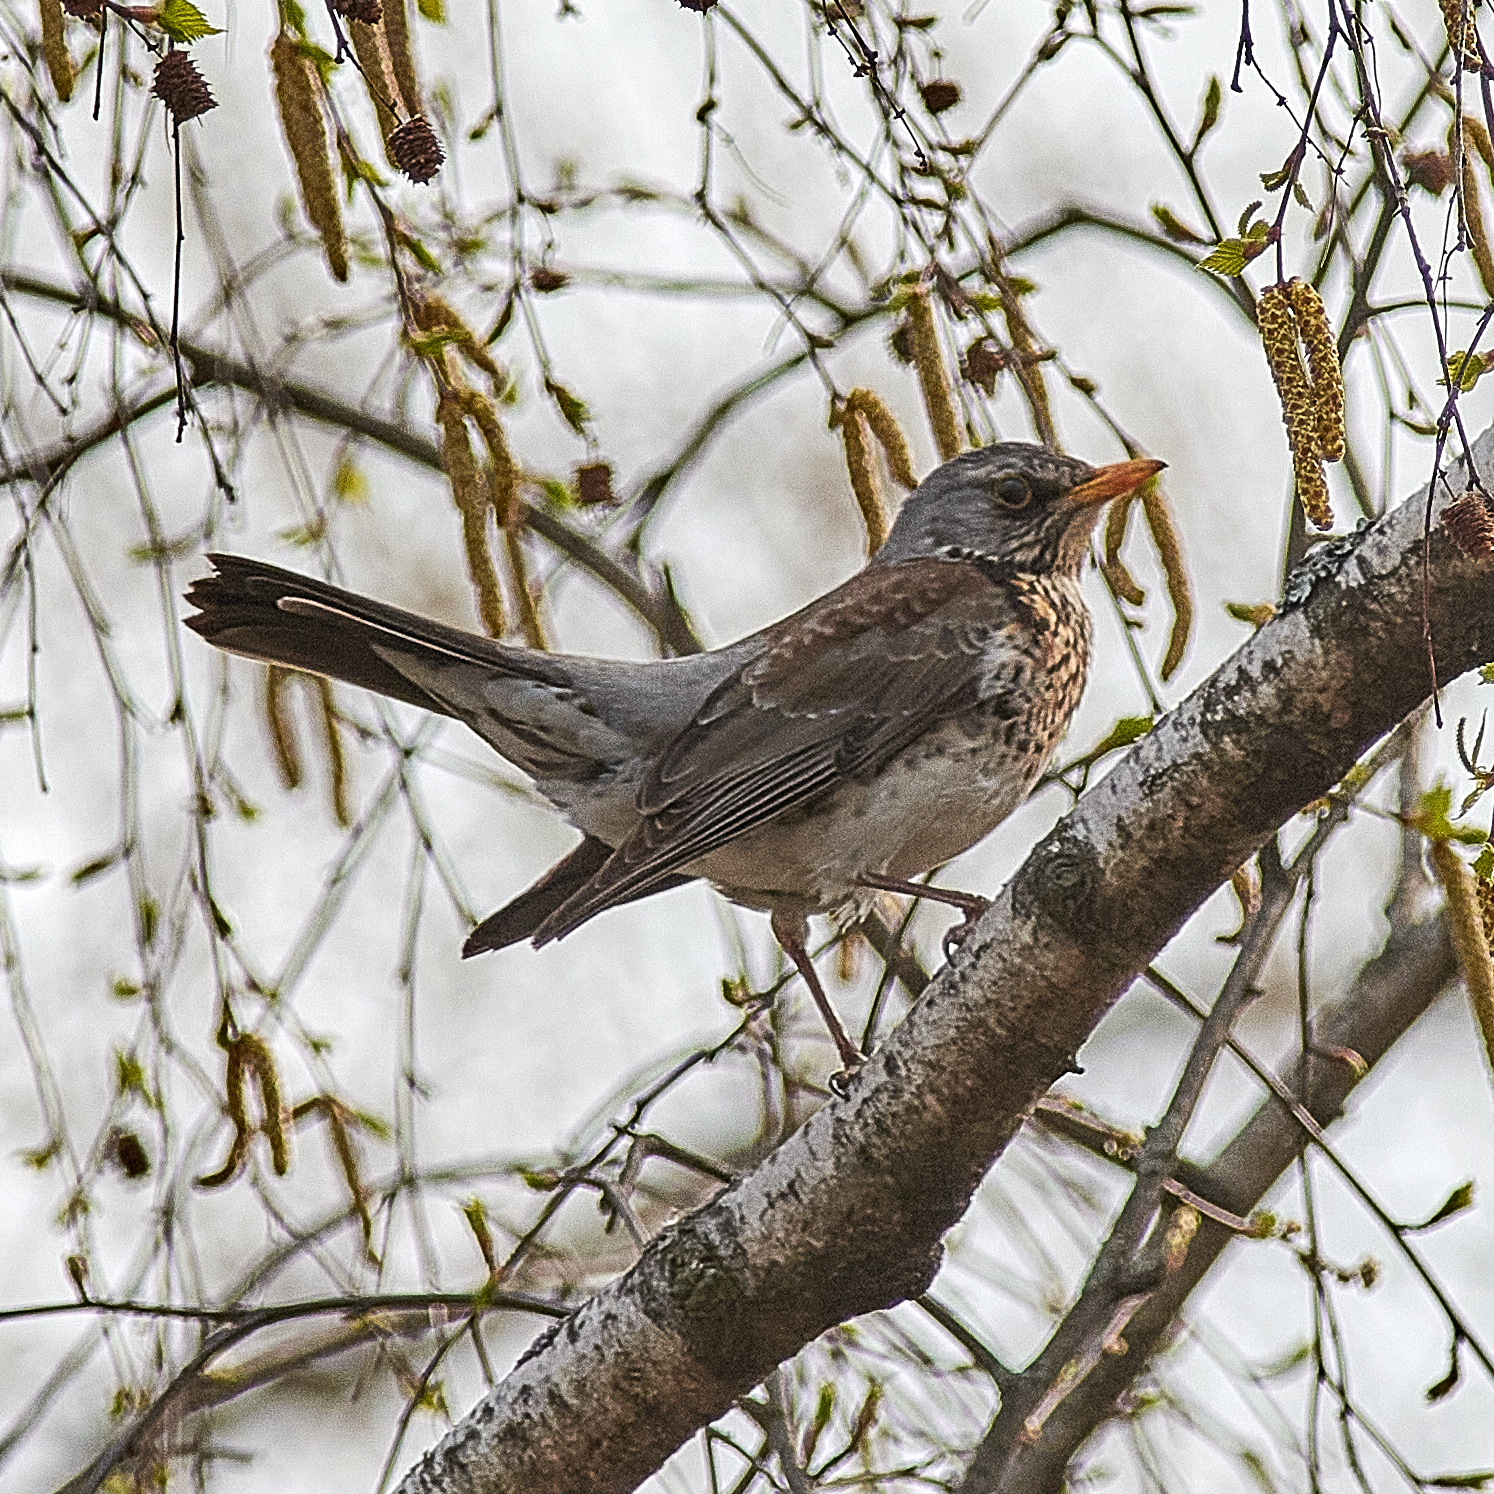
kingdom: Animalia
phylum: Chordata
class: Aves
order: Passeriformes
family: Turdidae
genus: Turdus
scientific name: Turdus pilaris
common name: Fieldfare
